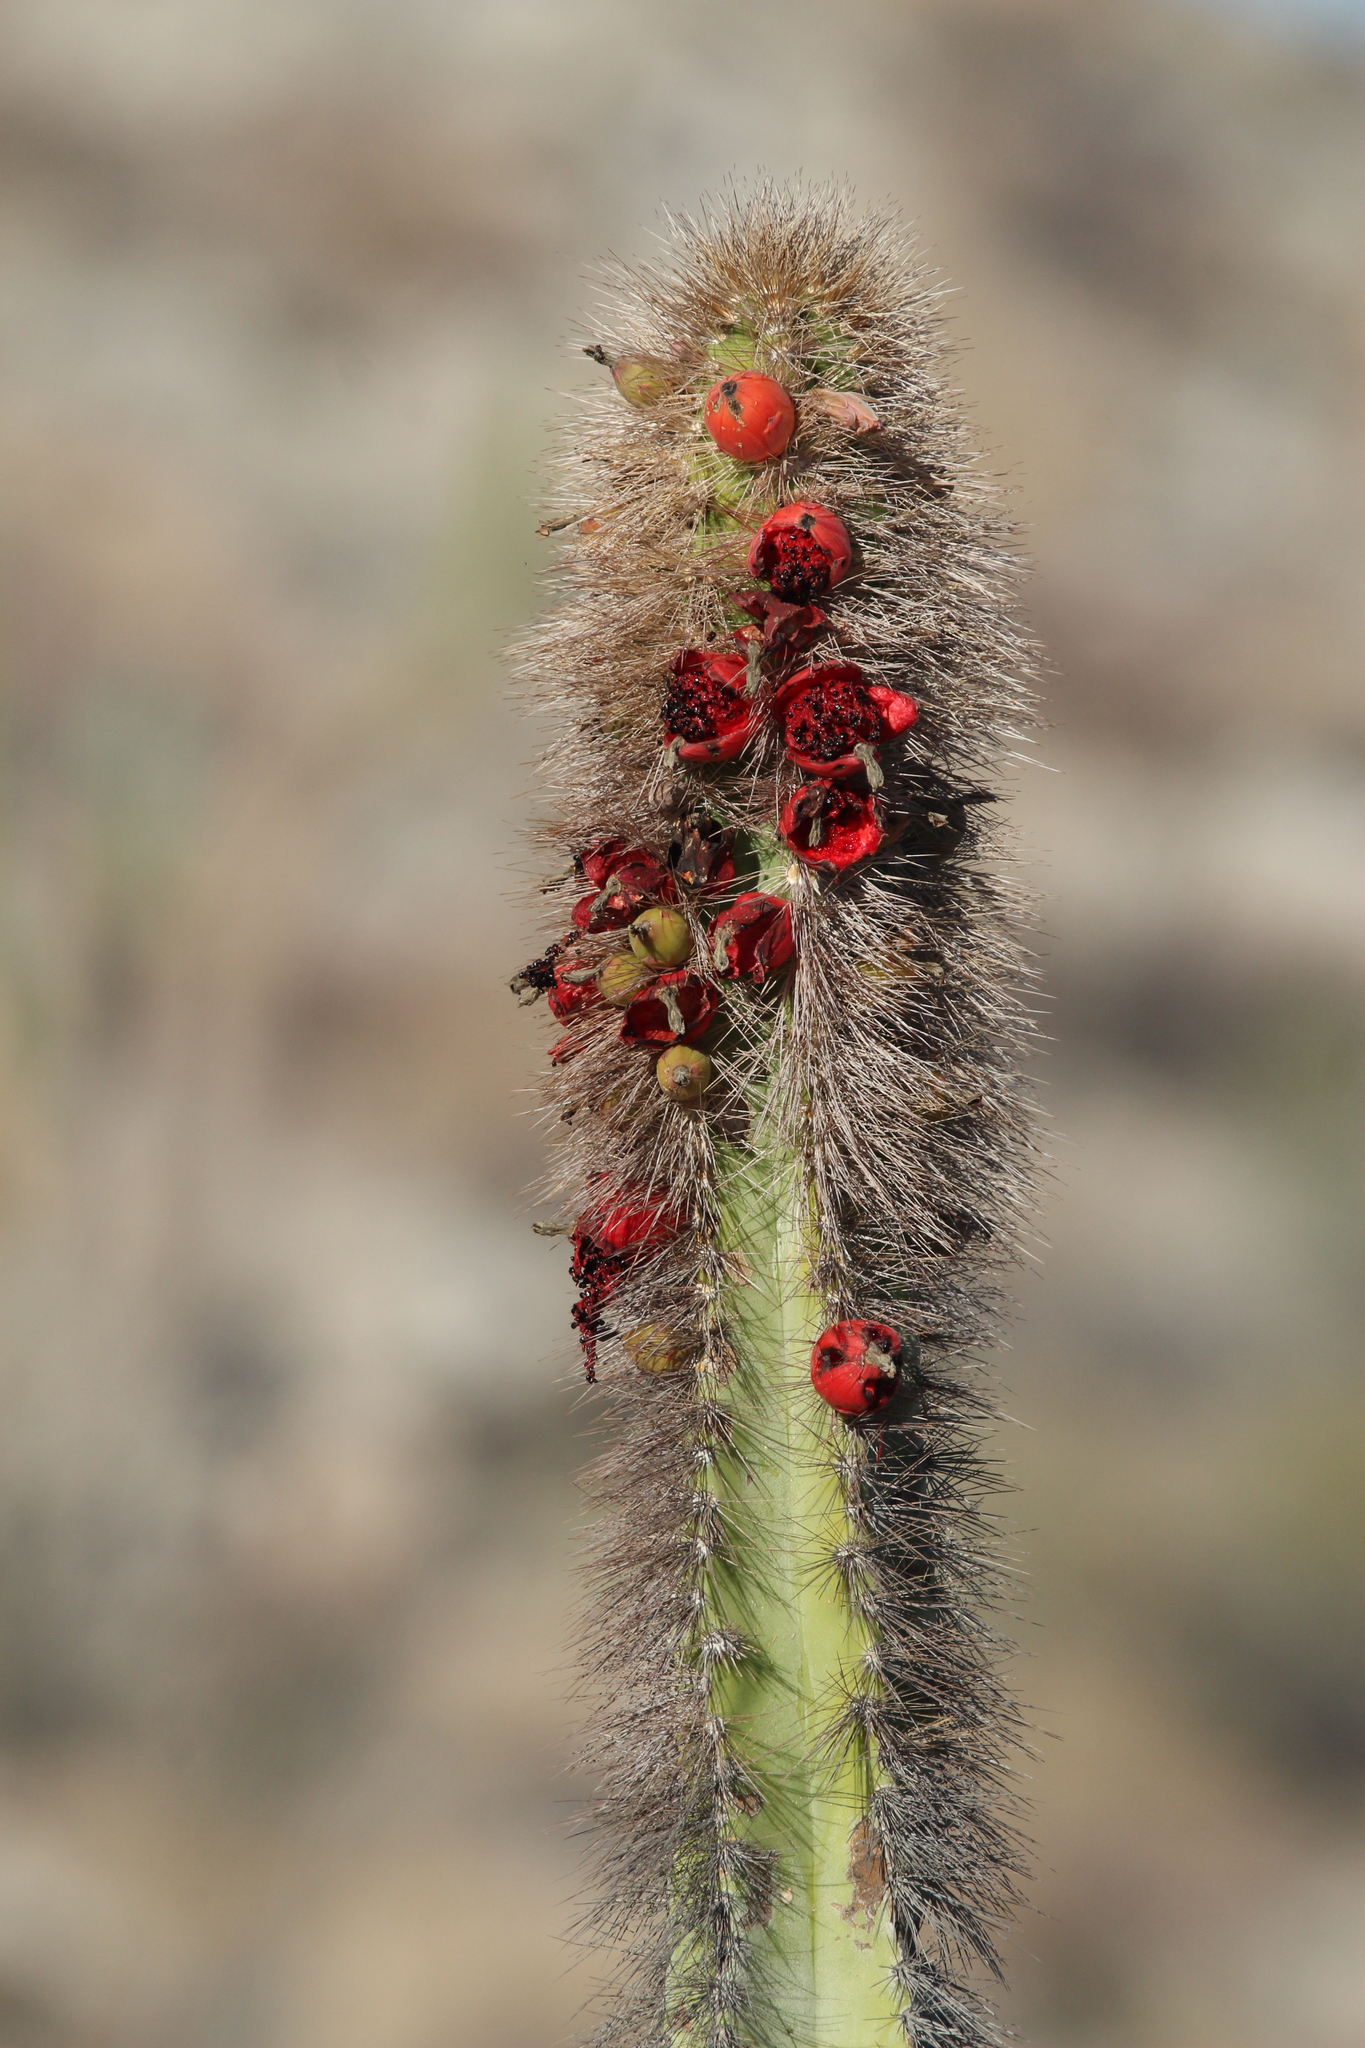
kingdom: Plantae
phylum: Tracheophyta
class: Magnoliopsida
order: Caryophyllales
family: Cactaceae
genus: Pachycereus
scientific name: Pachycereus schottii
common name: Senita cactus
